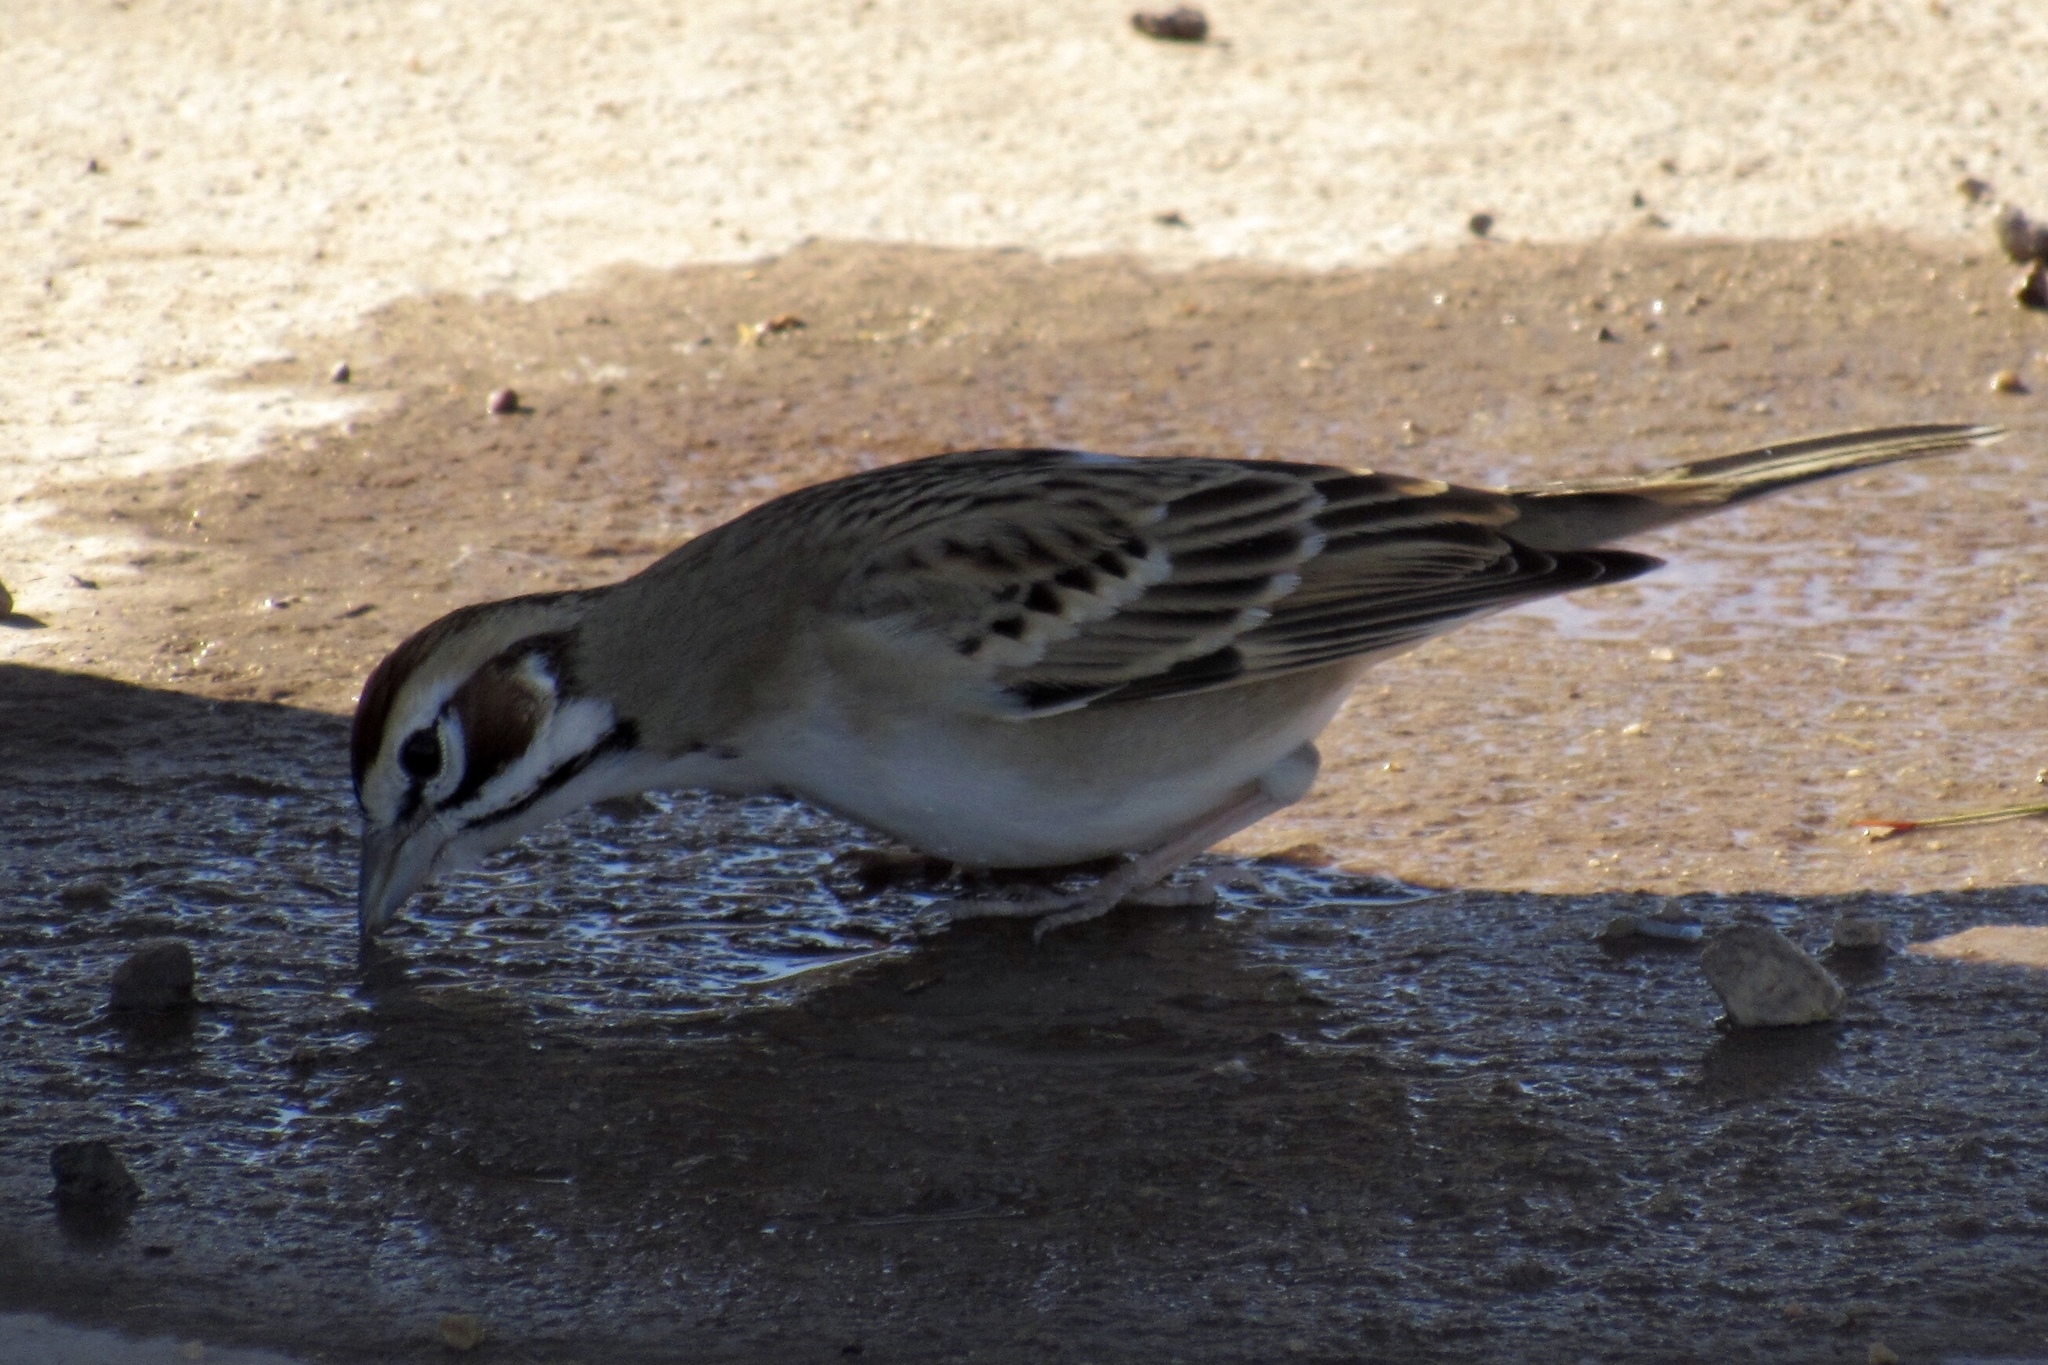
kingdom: Animalia
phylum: Chordata
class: Aves
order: Passeriformes
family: Passerellidae
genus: Chondestes
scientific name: Chondestes grammacus
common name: Lark sparrow
